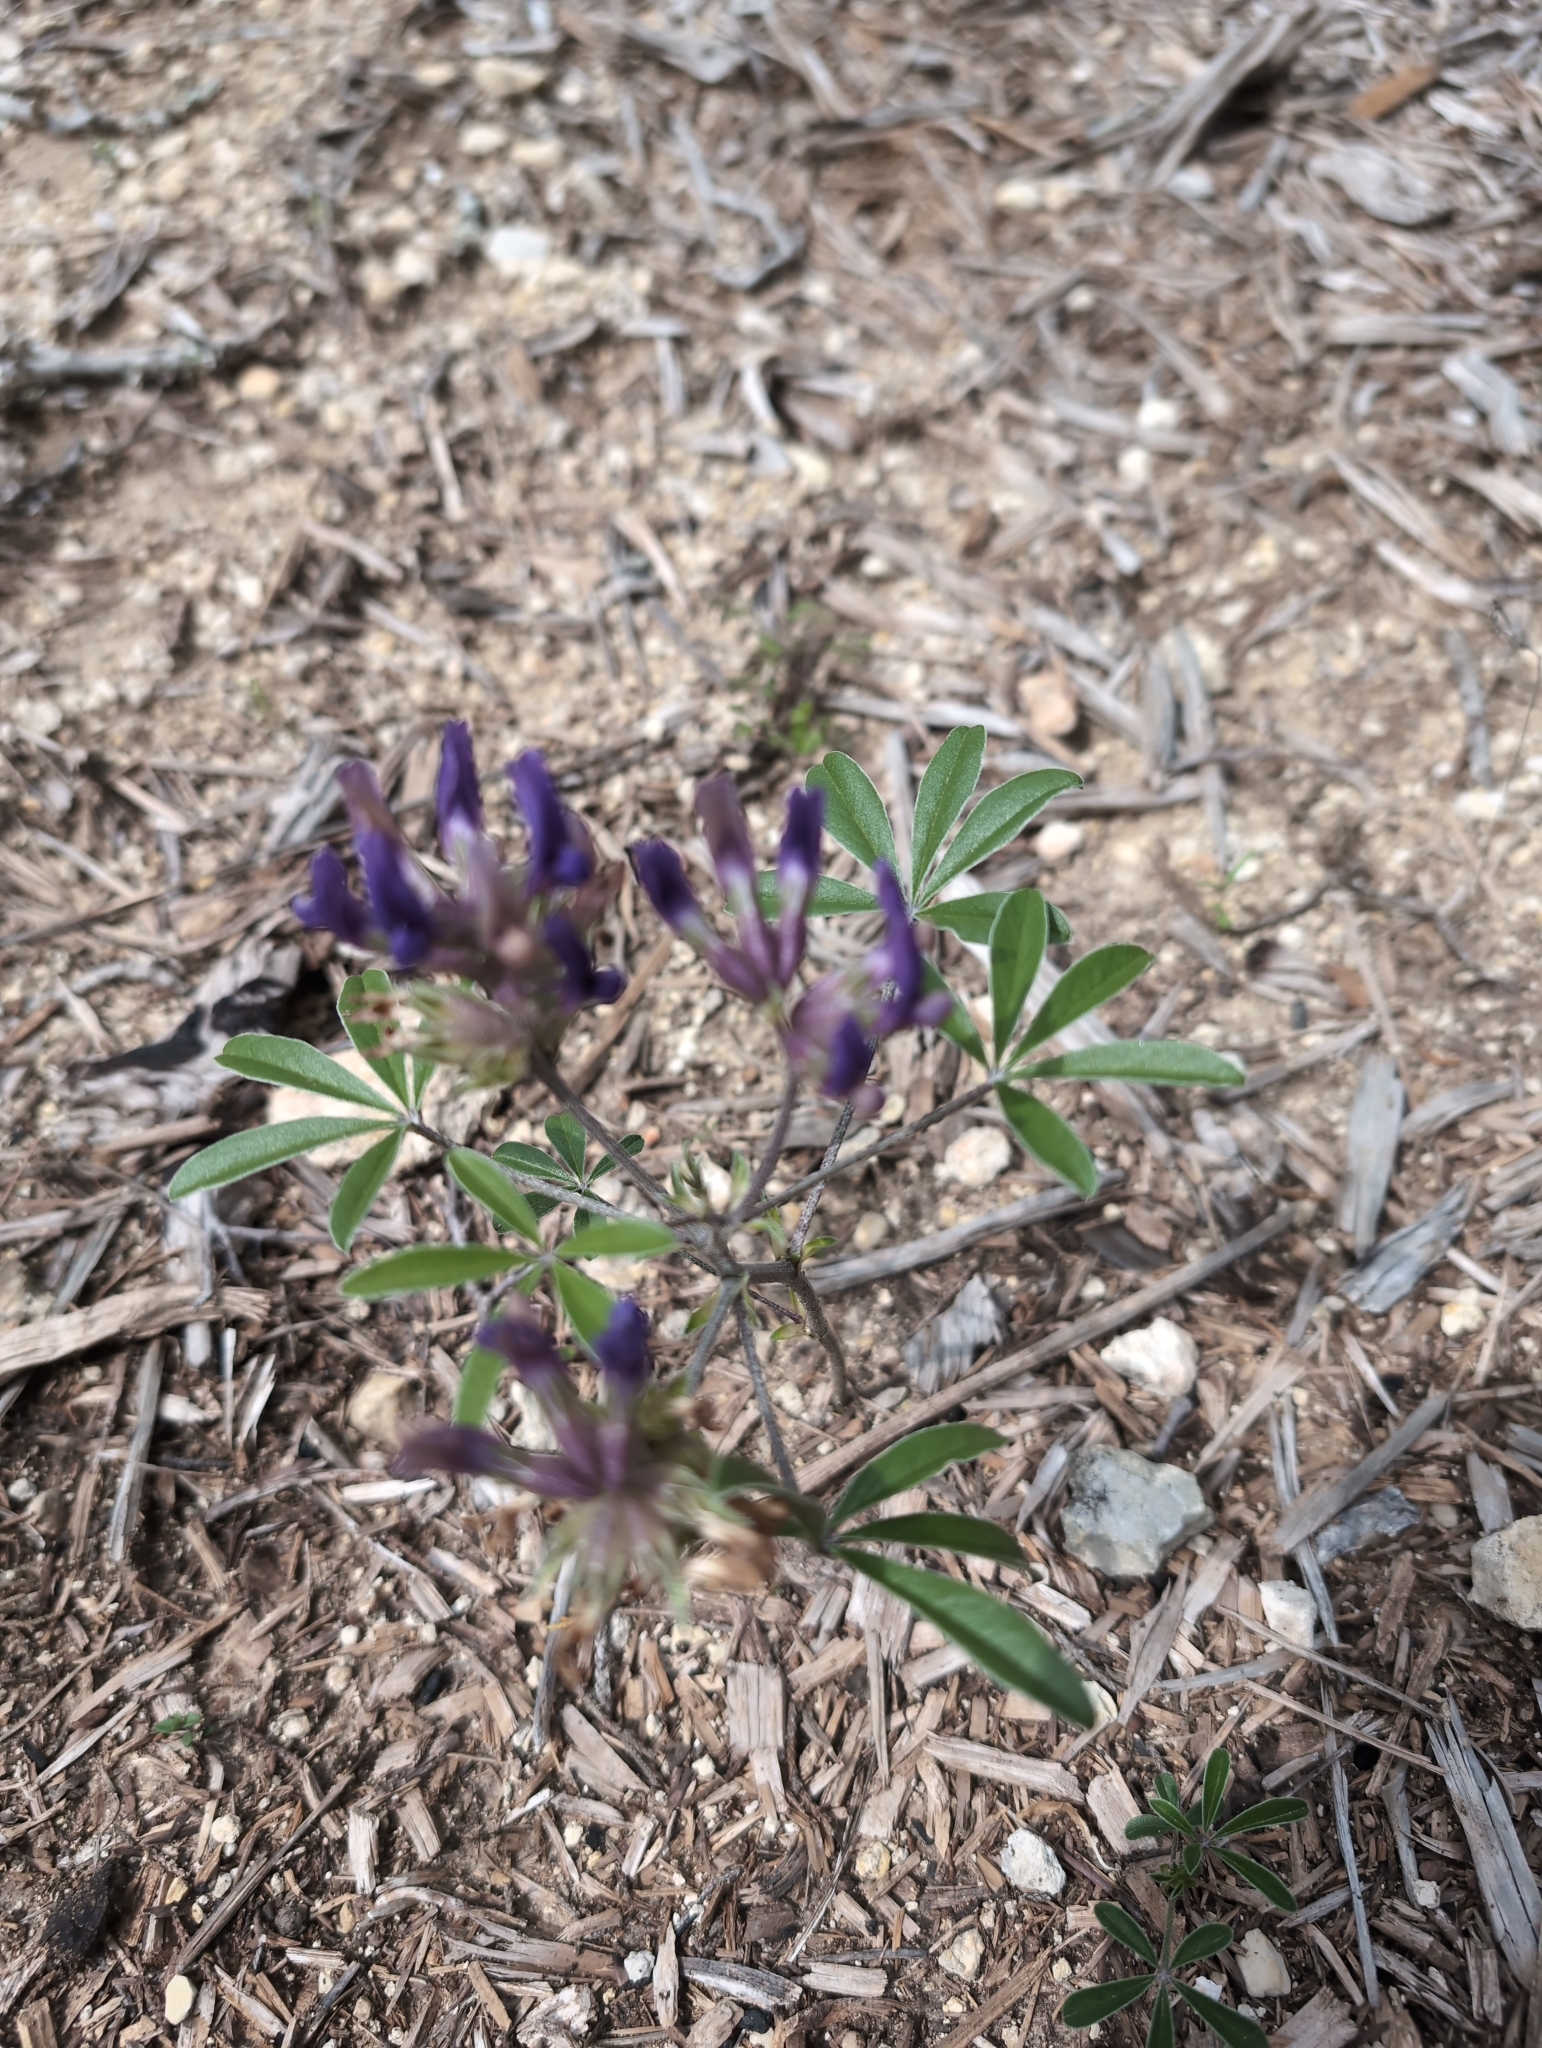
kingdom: Plantae
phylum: Tracheophyta
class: Magnoliopsida
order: Fabales
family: Fabaceae
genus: Pediomelum
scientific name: Pediomelum latestipulatum
